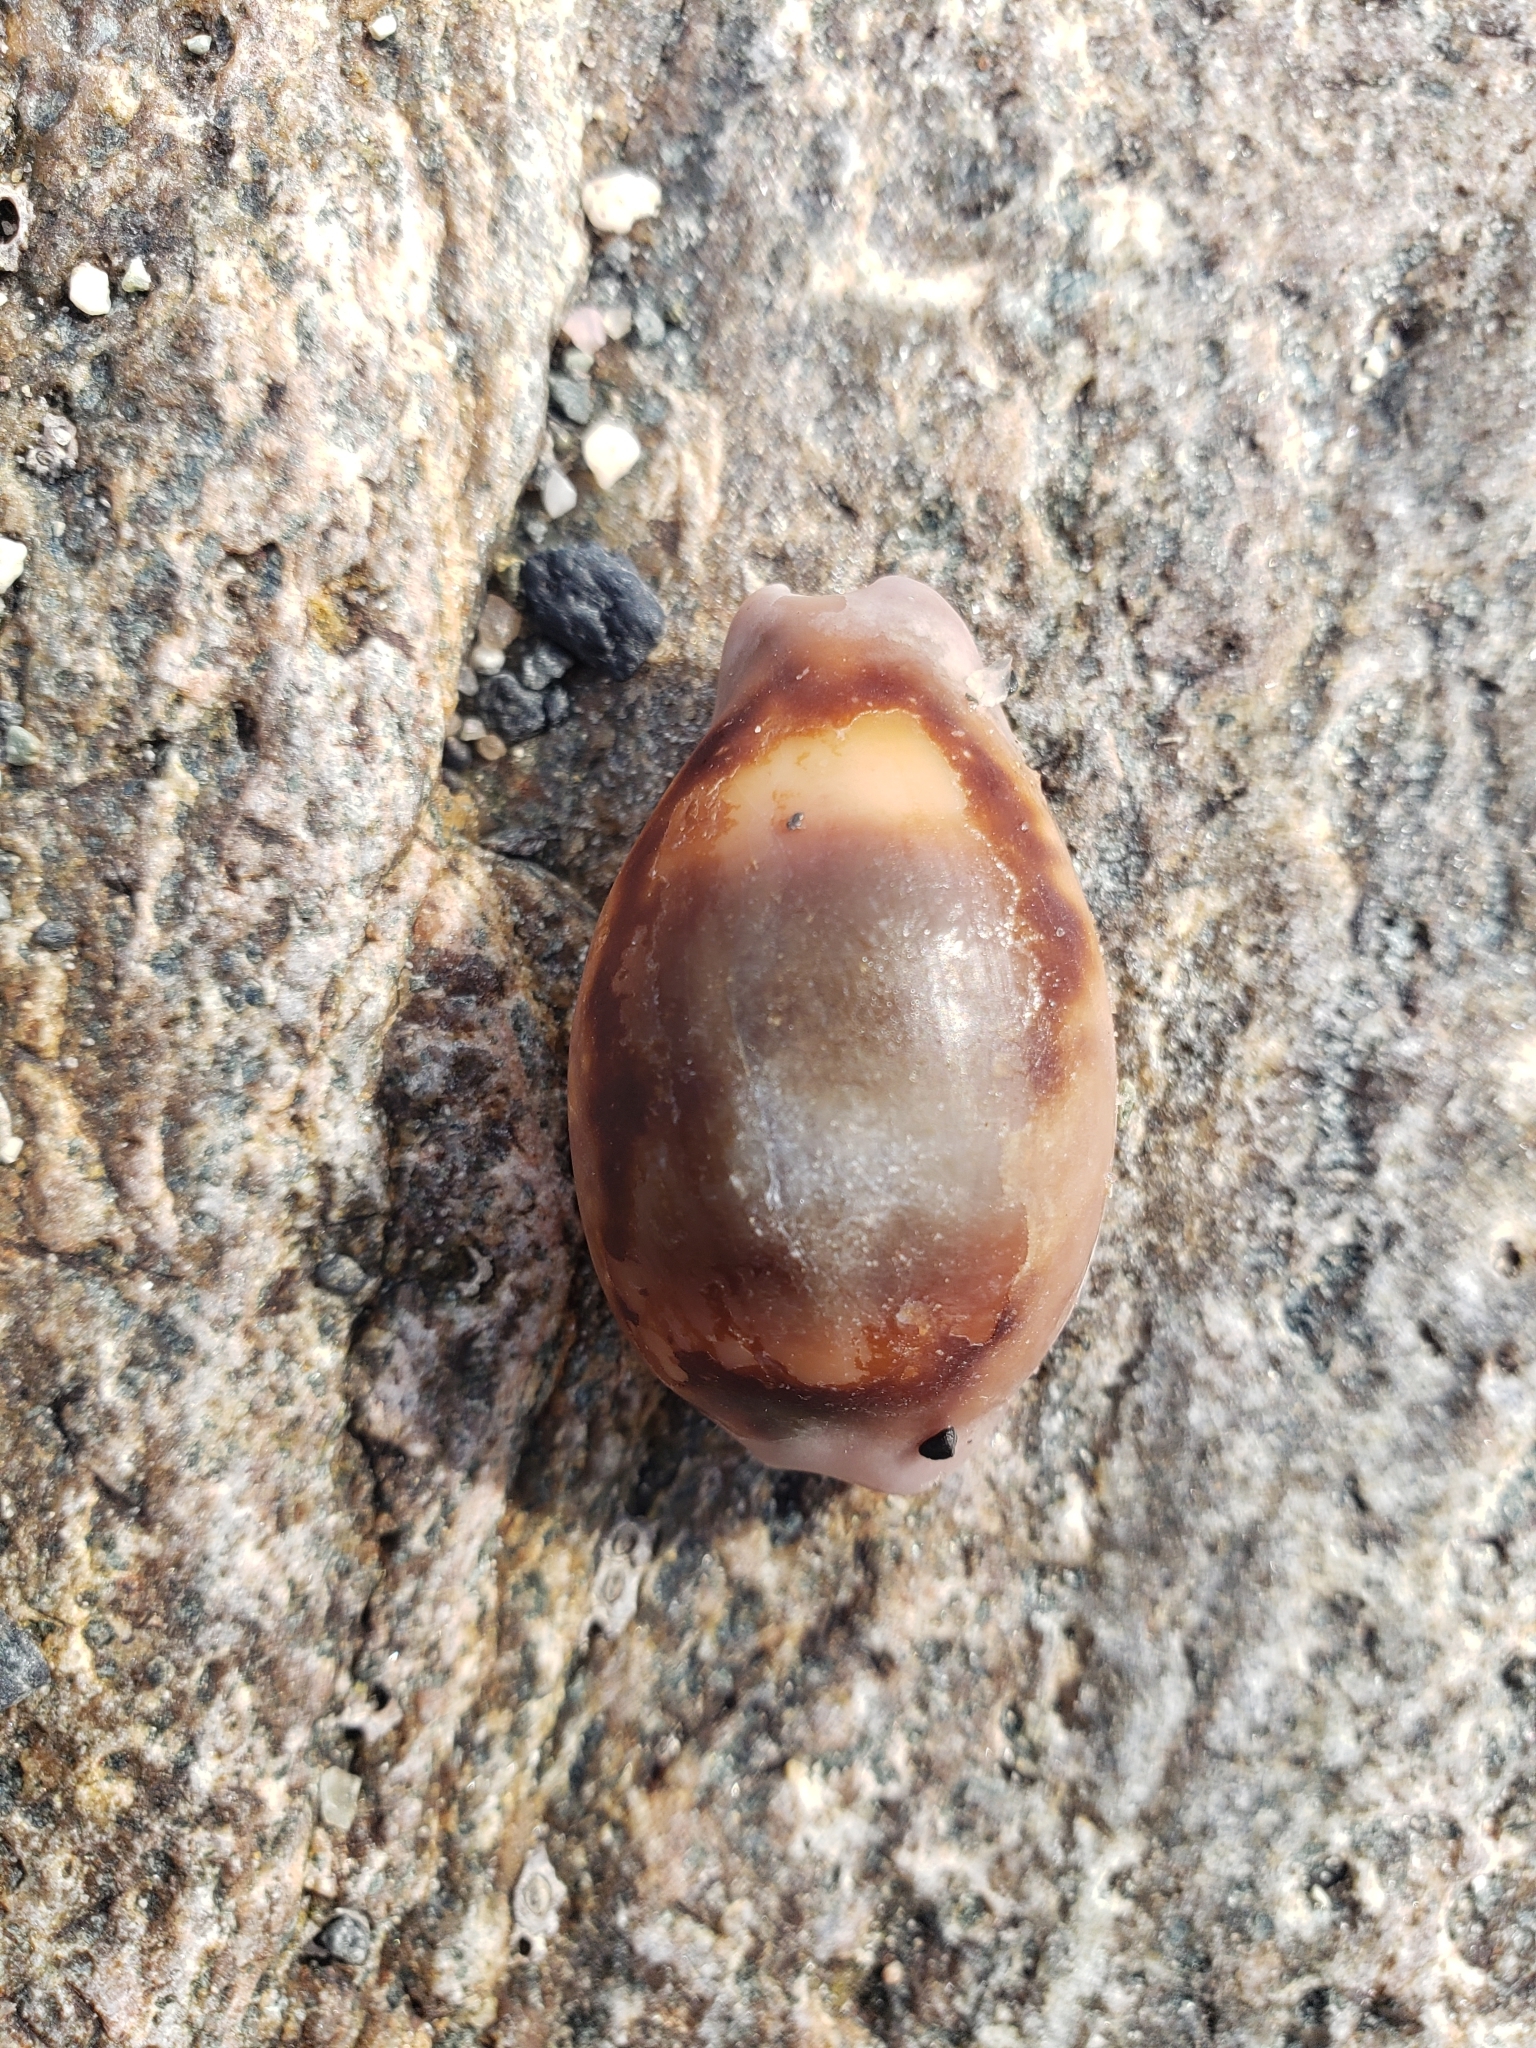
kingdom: Animalia
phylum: Mollusca
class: Gastropoda
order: Littorinimorpha
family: Cypraeidae
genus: Neobernaya
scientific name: Neobernaya spadicea
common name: Chestnut cowrie
